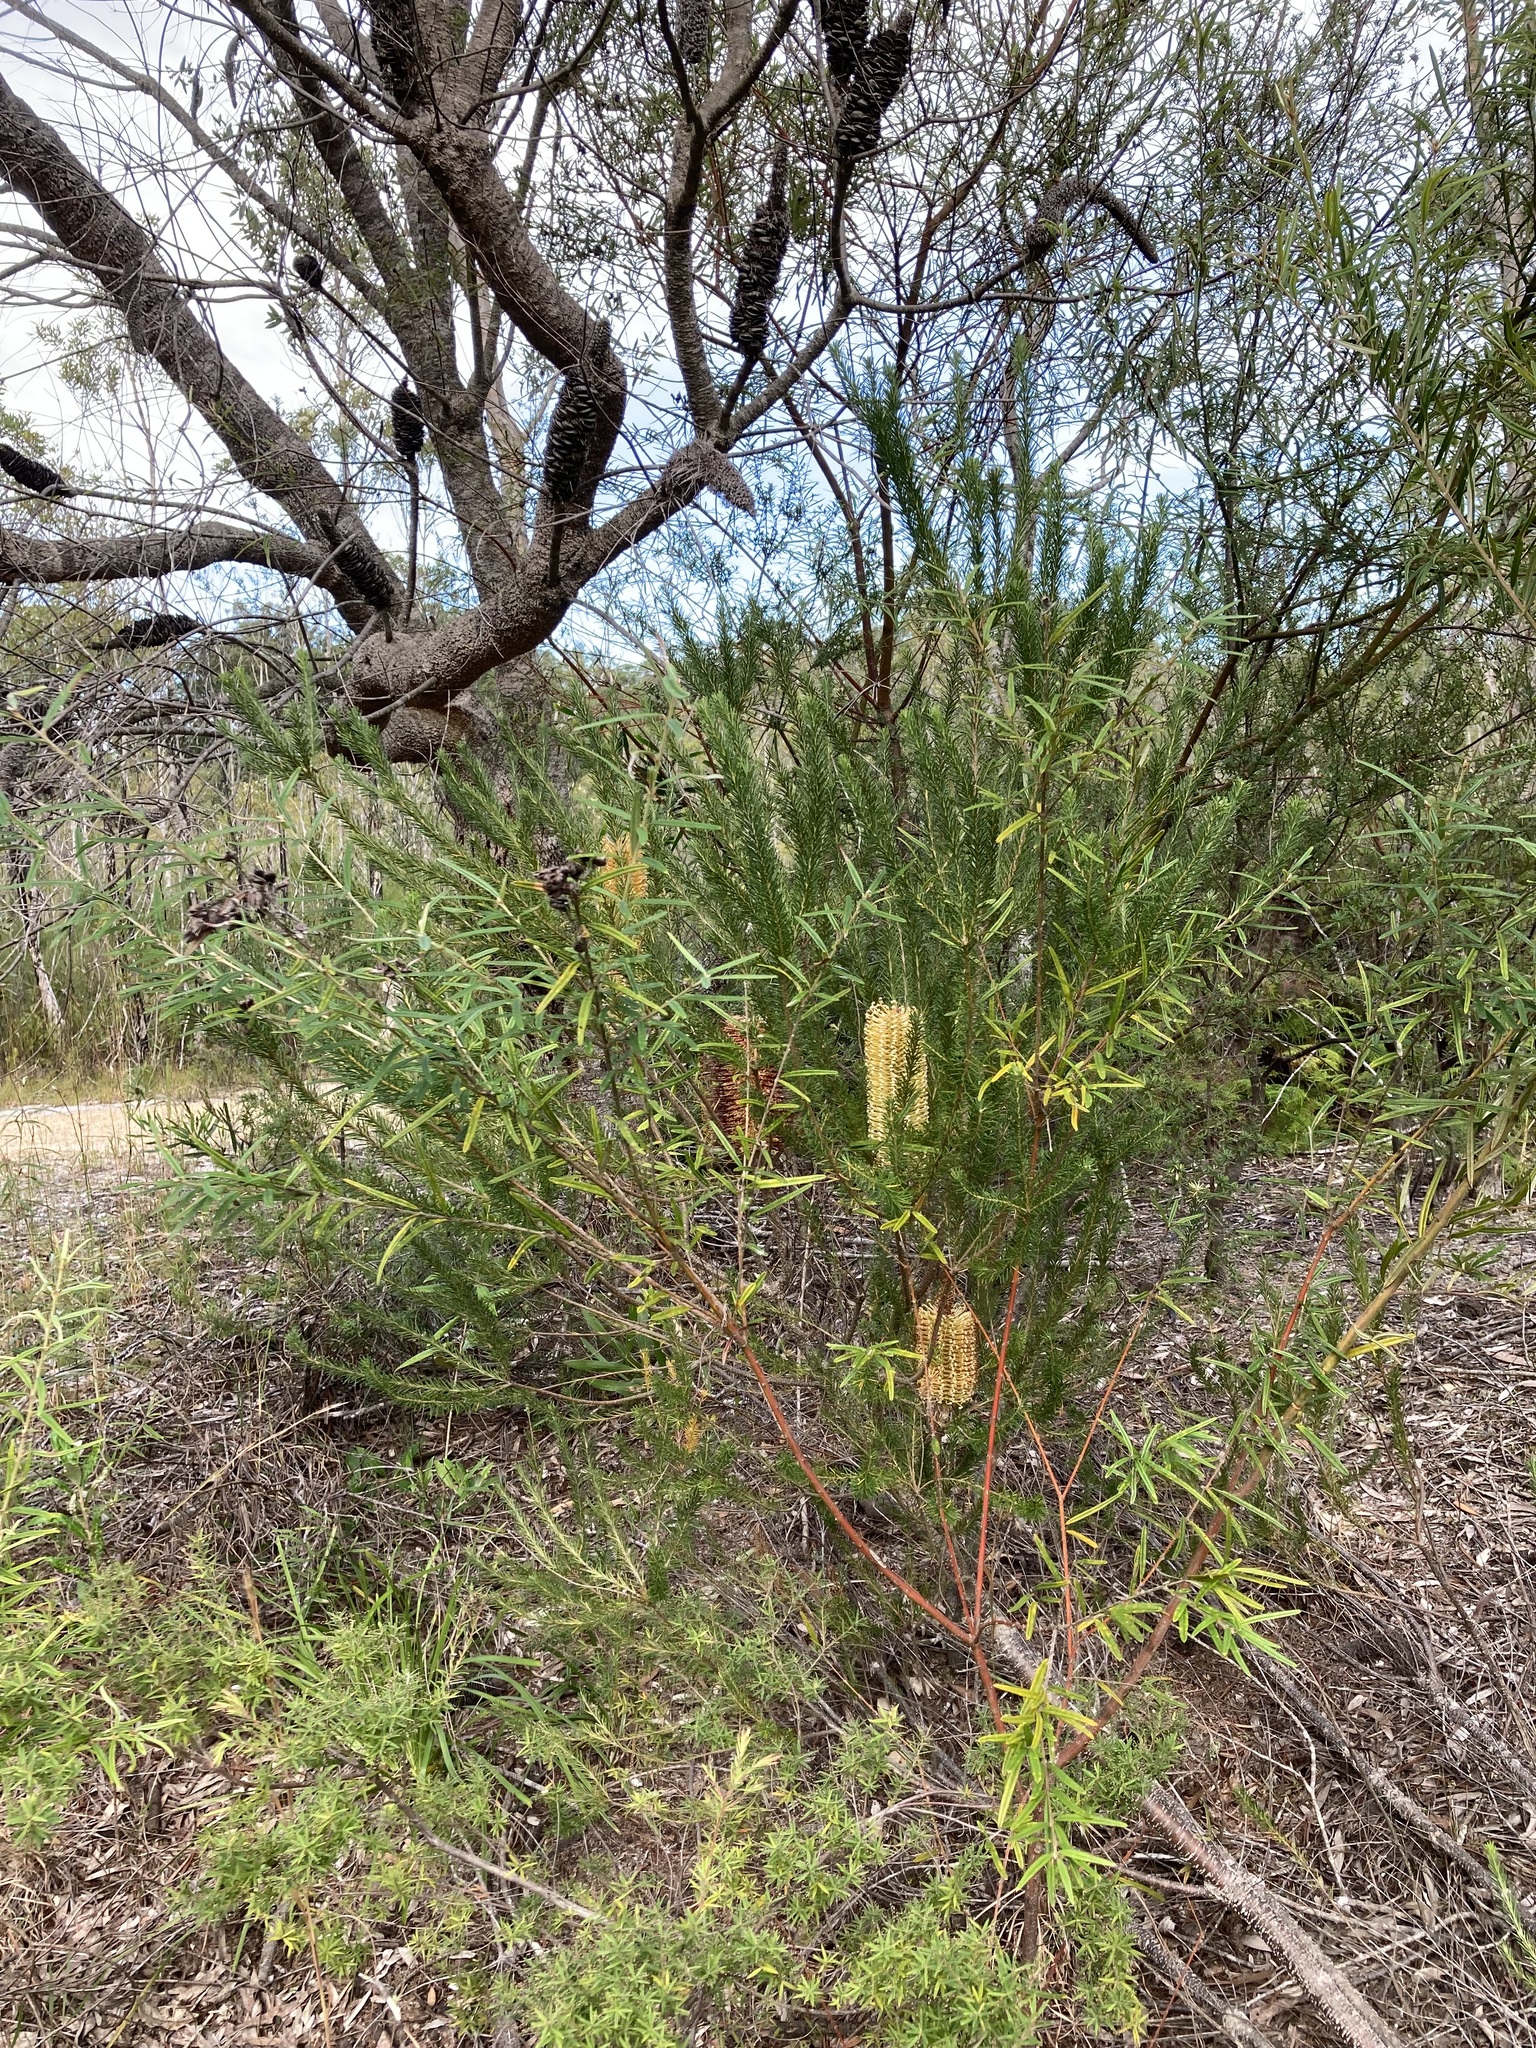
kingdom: Plantae
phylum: Tracheophyta
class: Magnoliopsida
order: Proteales
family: Proteaceae
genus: Banksia
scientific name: Banksia ericifolia
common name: Heath-leaf banksia
